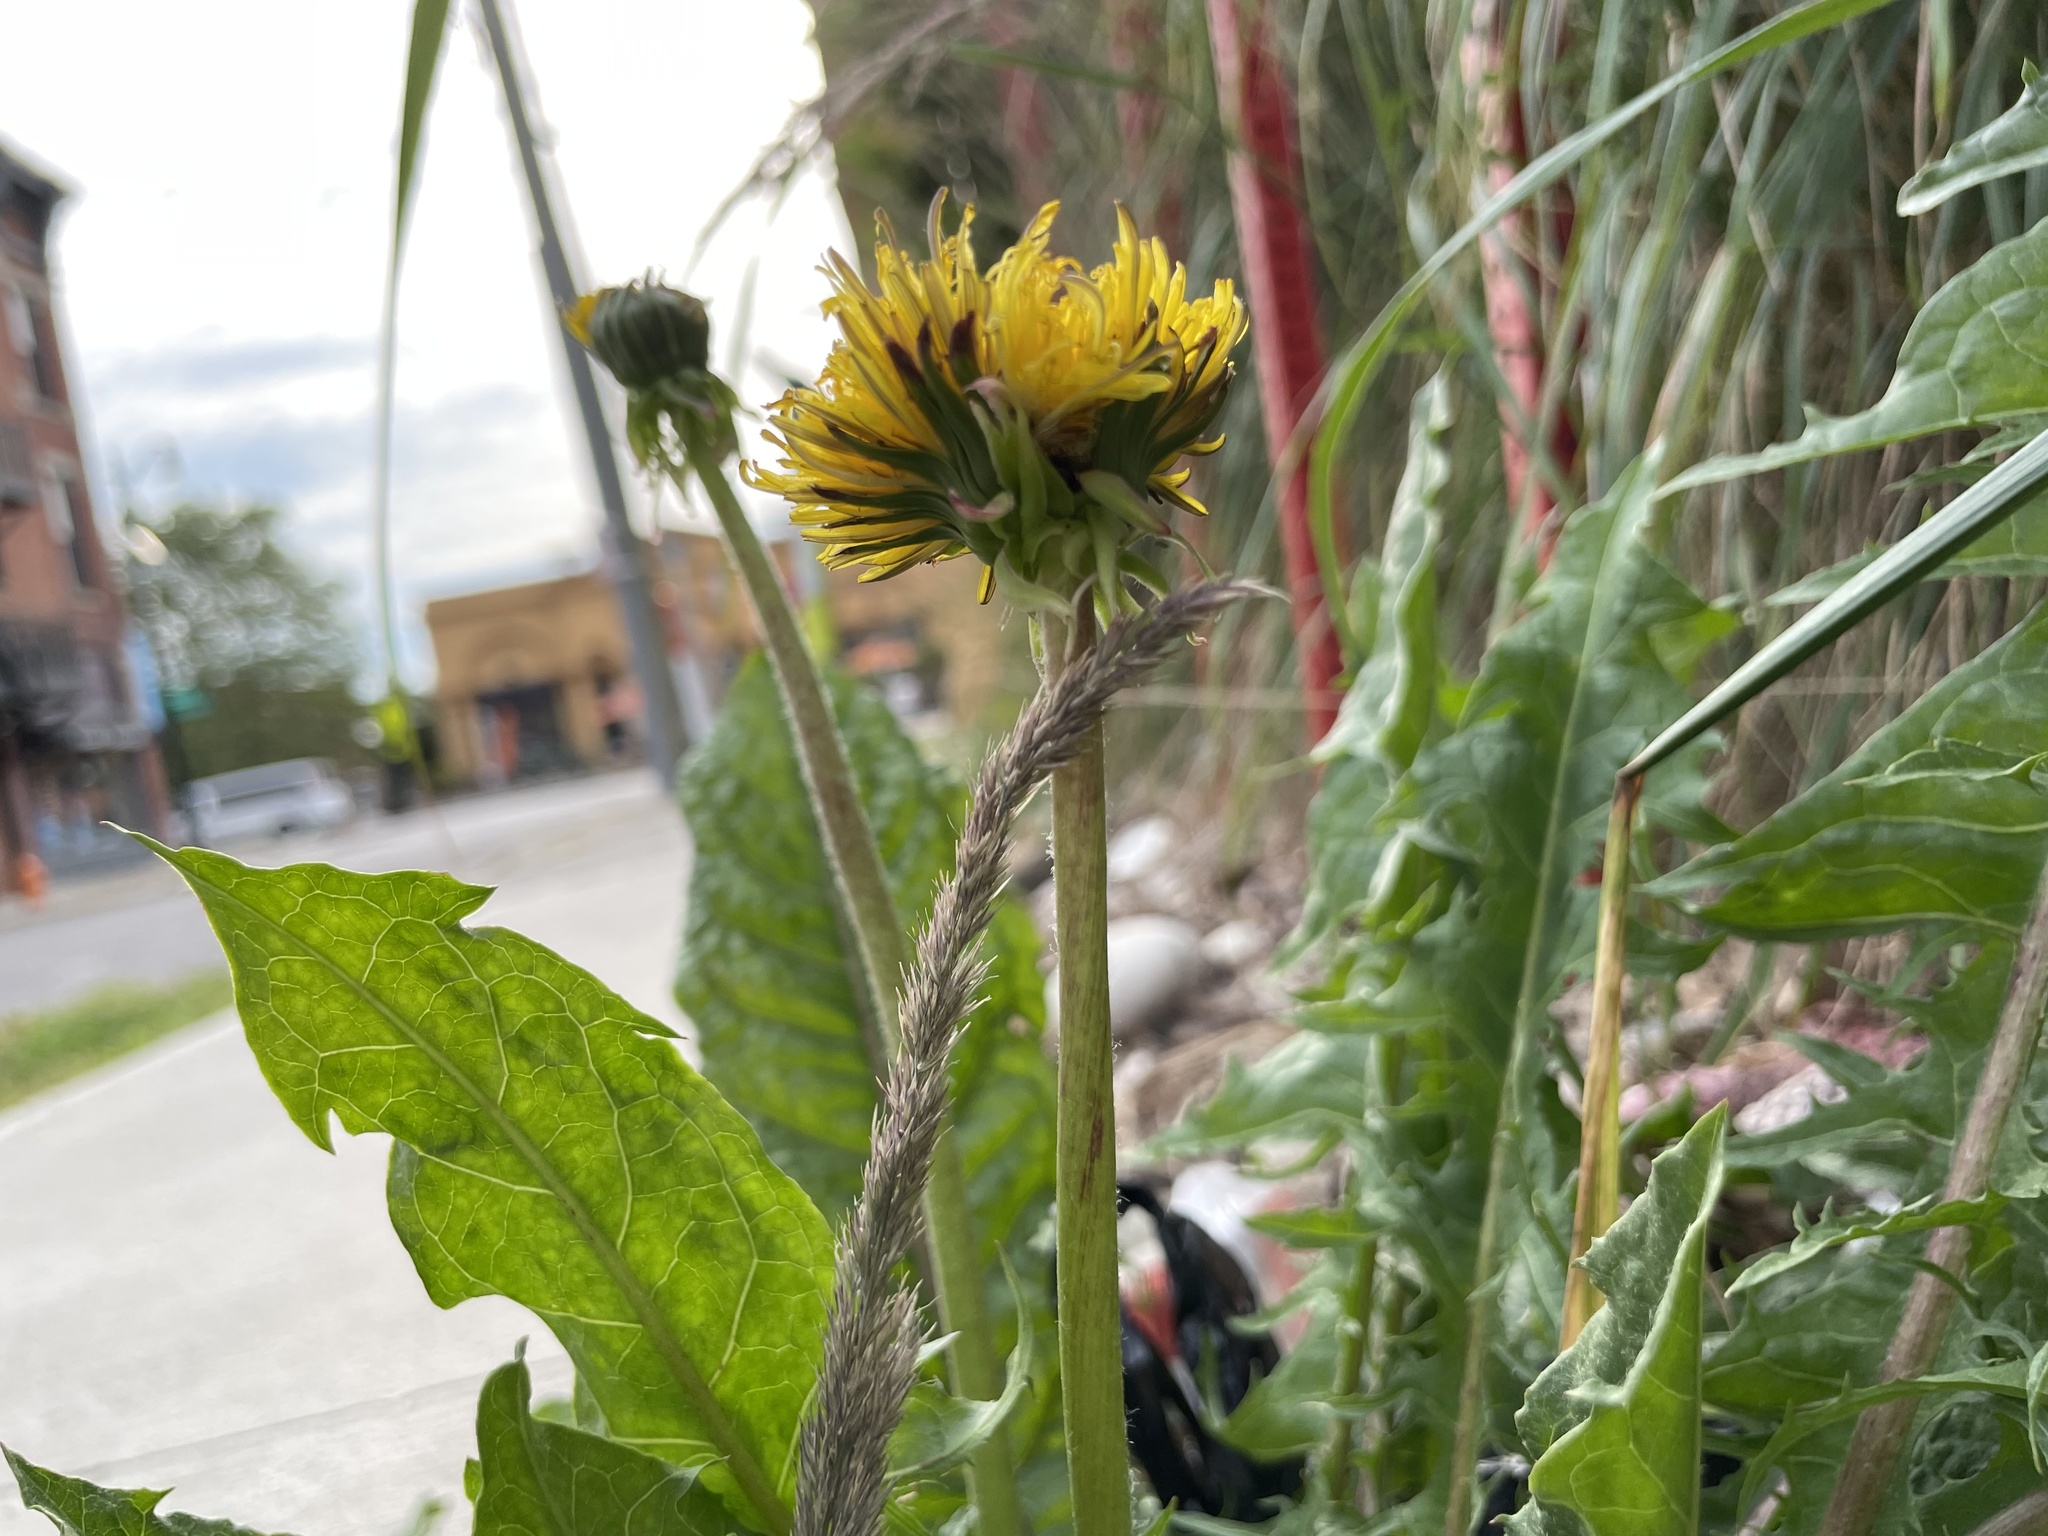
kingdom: Plantae
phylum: Tracheophyta
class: Magnoliopsida
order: Asterales
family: Asteraceae
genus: Taraxacum
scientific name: Taraxacum officinale
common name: Common dandelion
